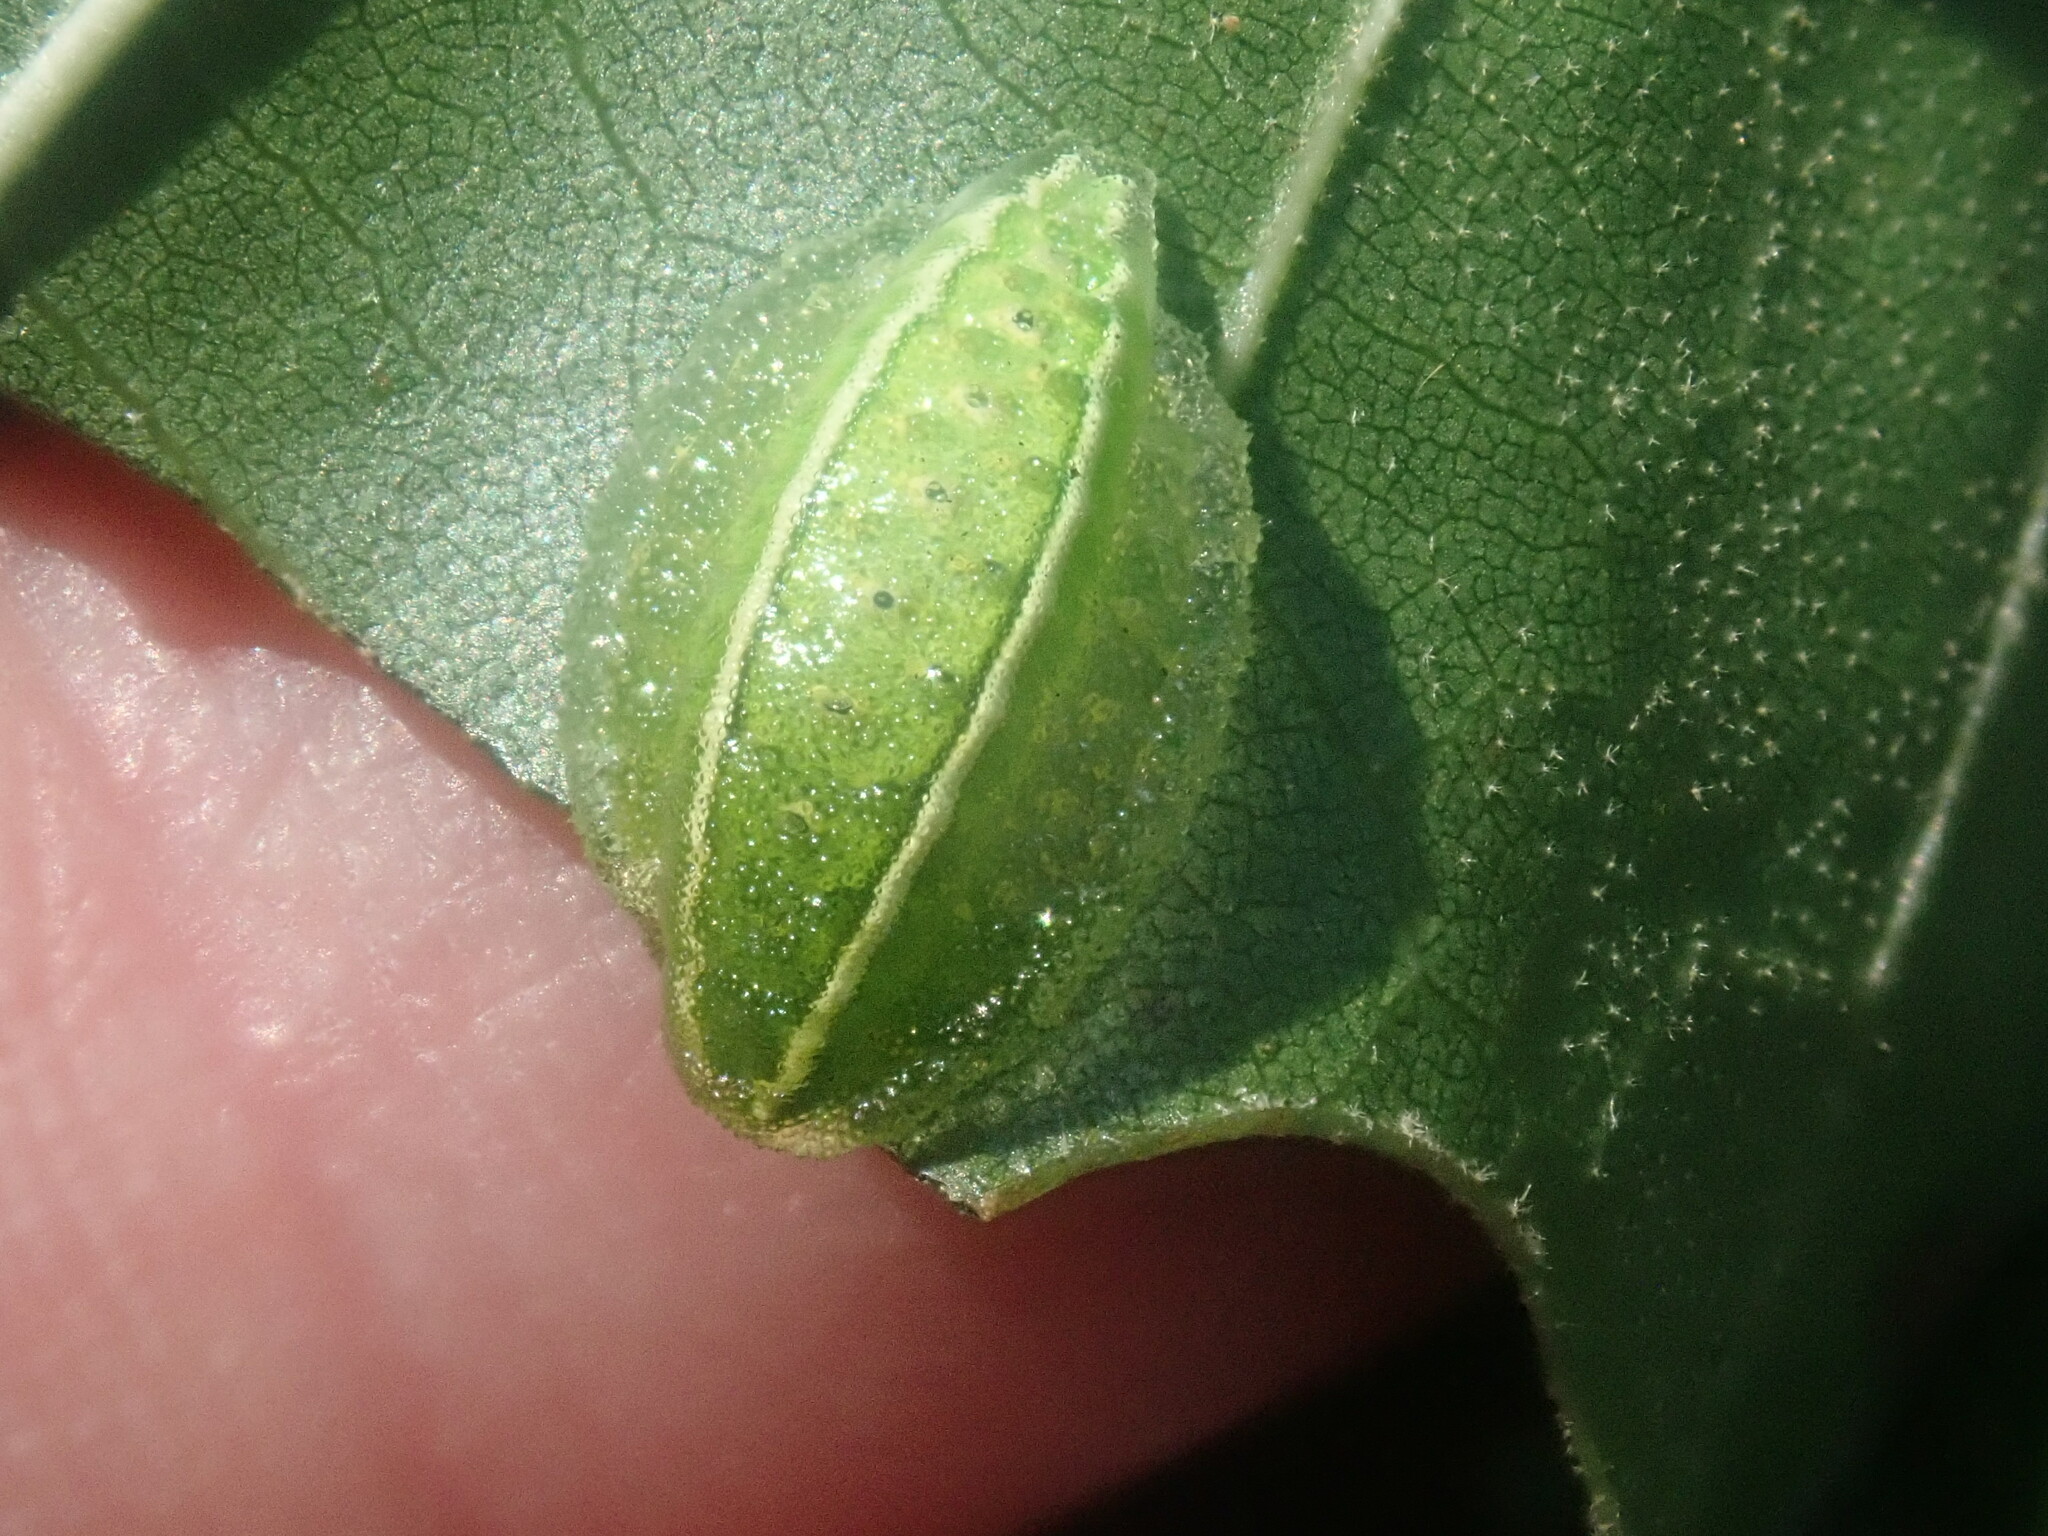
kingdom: Animalia
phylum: Arthropoda
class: Insecta
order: Lepidoptera
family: Limacodidae
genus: Apoda
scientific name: Apoda biguttata
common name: Shagreened slug moth
